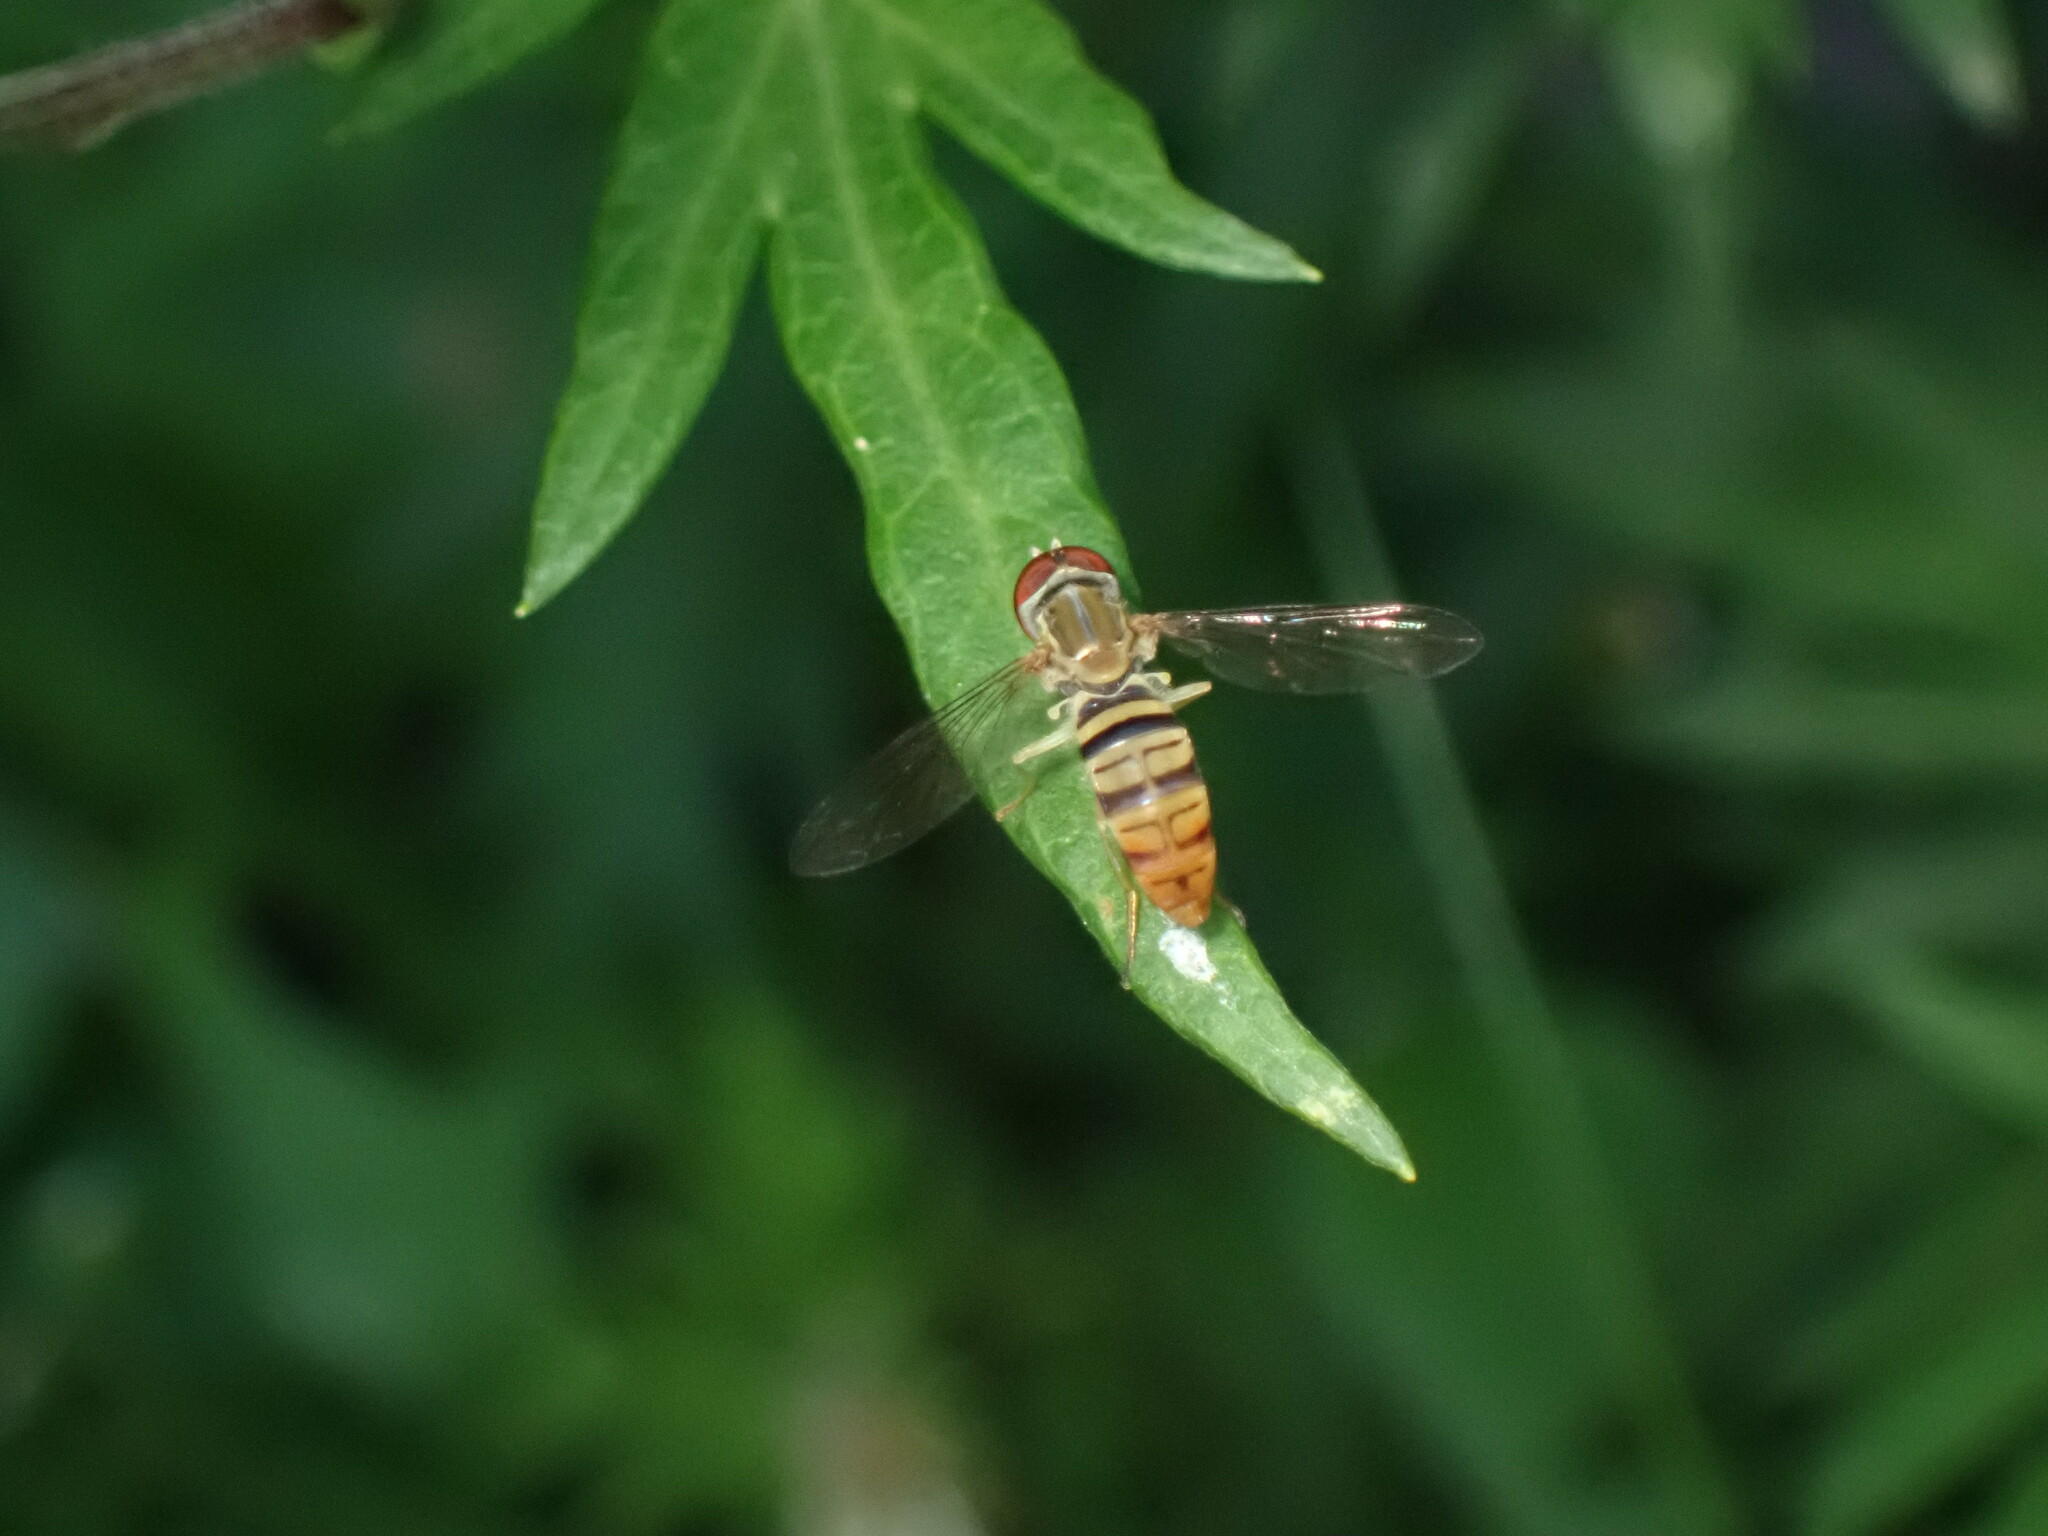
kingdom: Animalia
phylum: Arthropoda
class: Insecta
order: Diptera
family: Syrphidae
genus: Toxomerus
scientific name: Toxomerus politus
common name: Maize calligrapher
